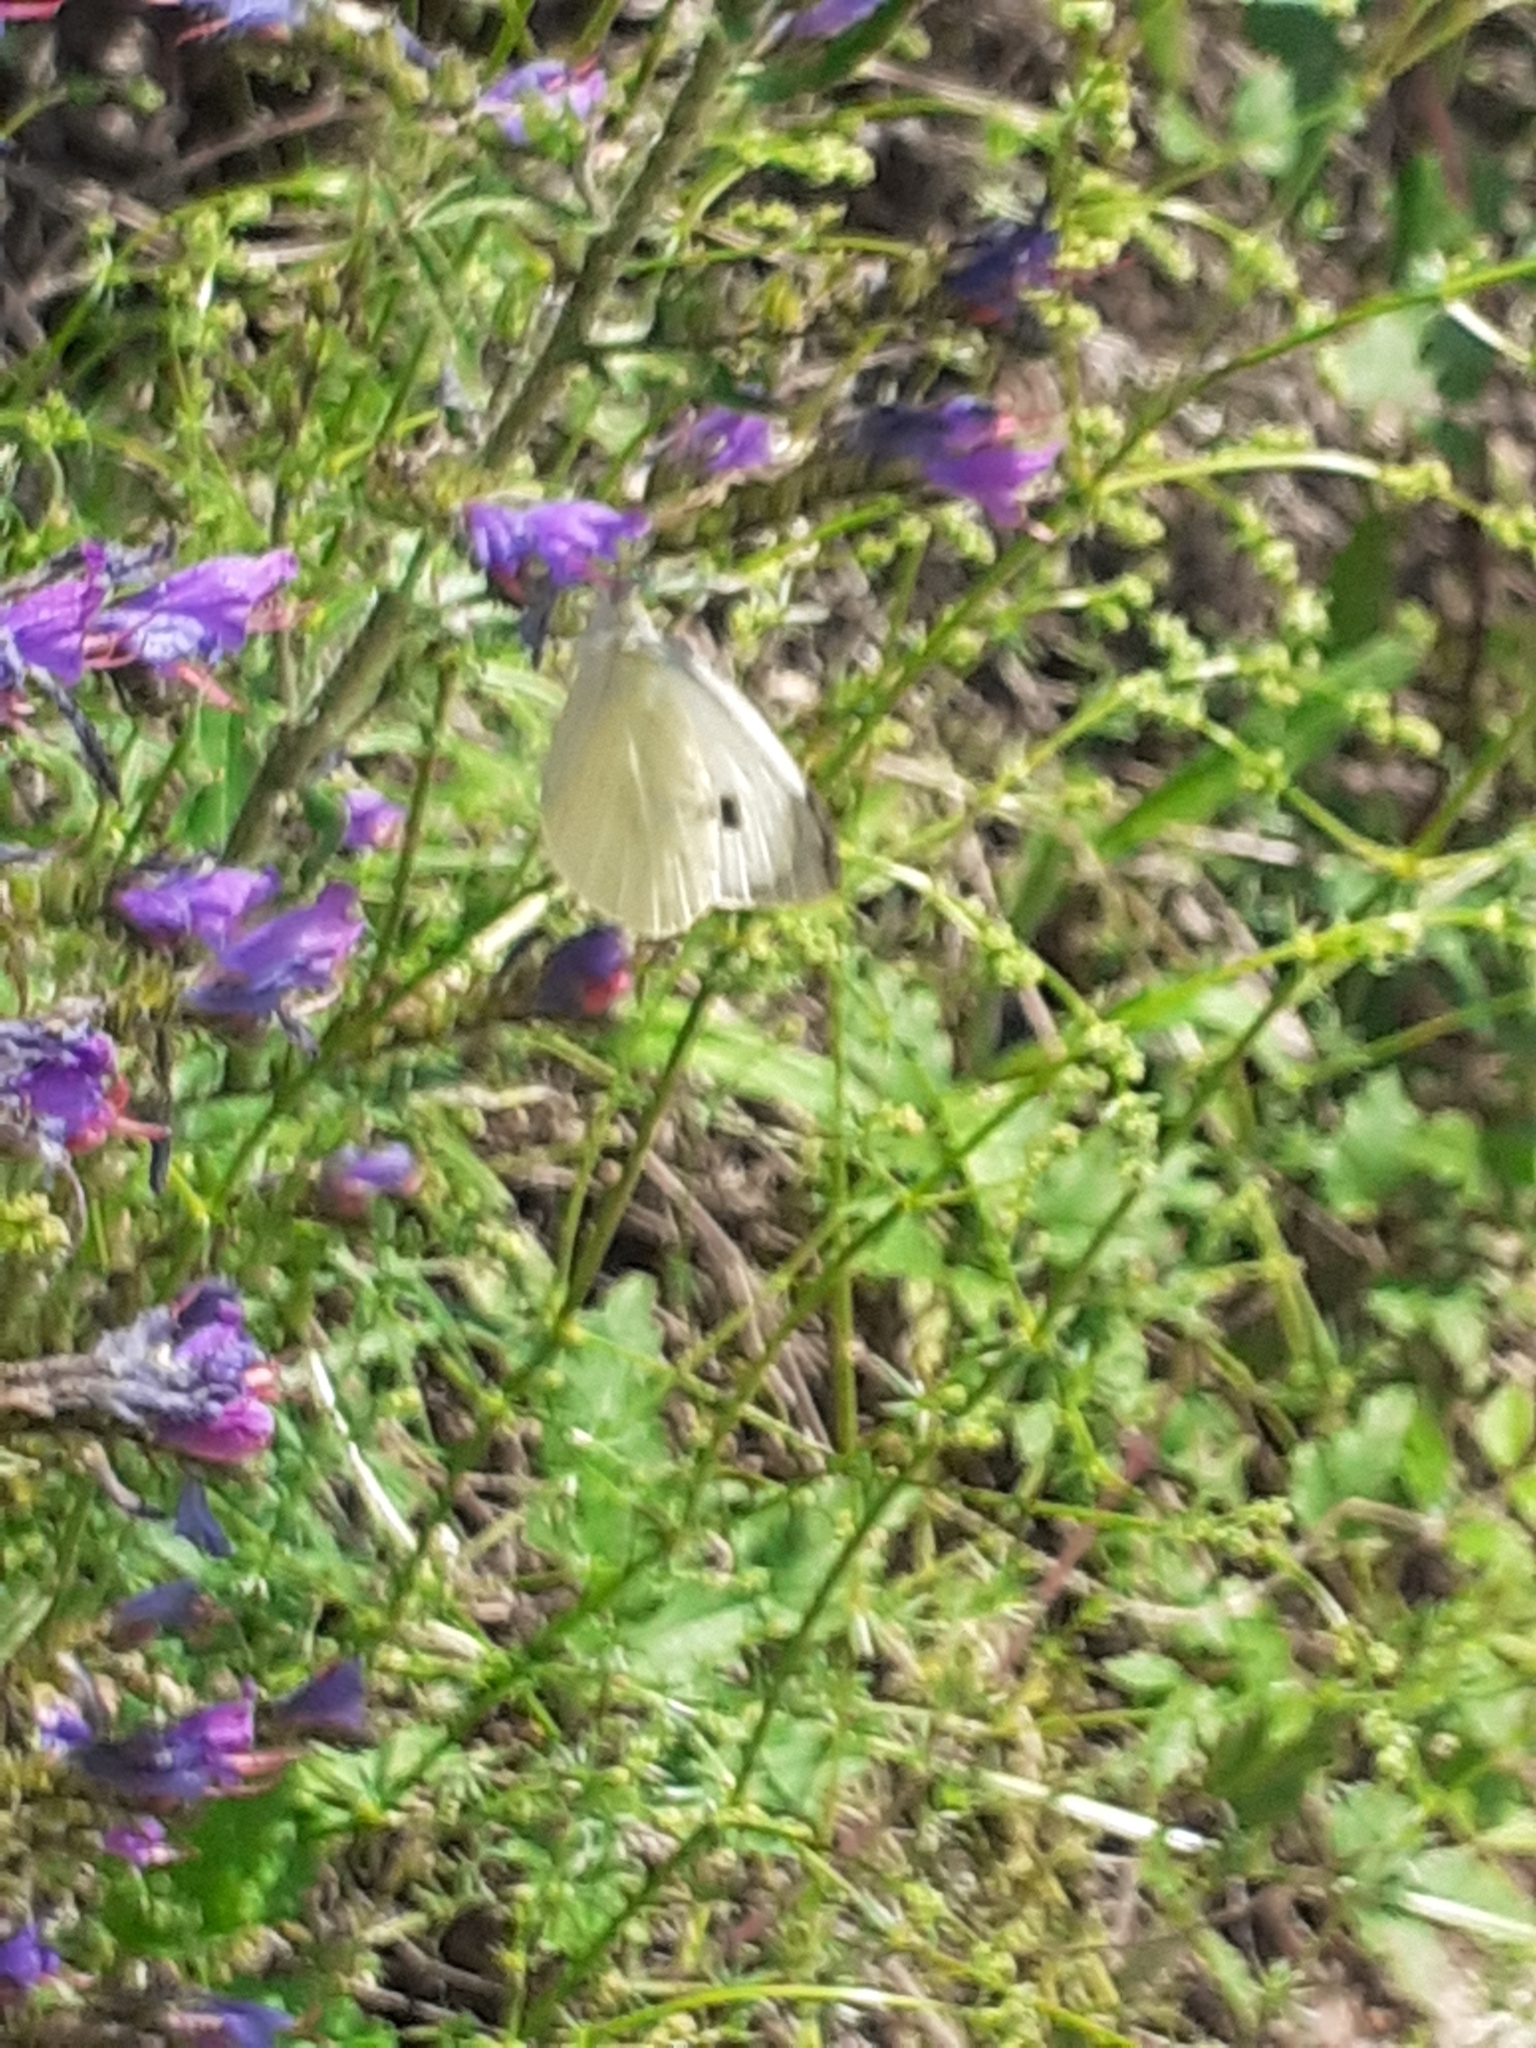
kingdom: Animalia
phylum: Arthropoda
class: Insecta
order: Lepidoptera
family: Pieridae
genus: Pieris
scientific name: Pieris brassicae
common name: Large white
